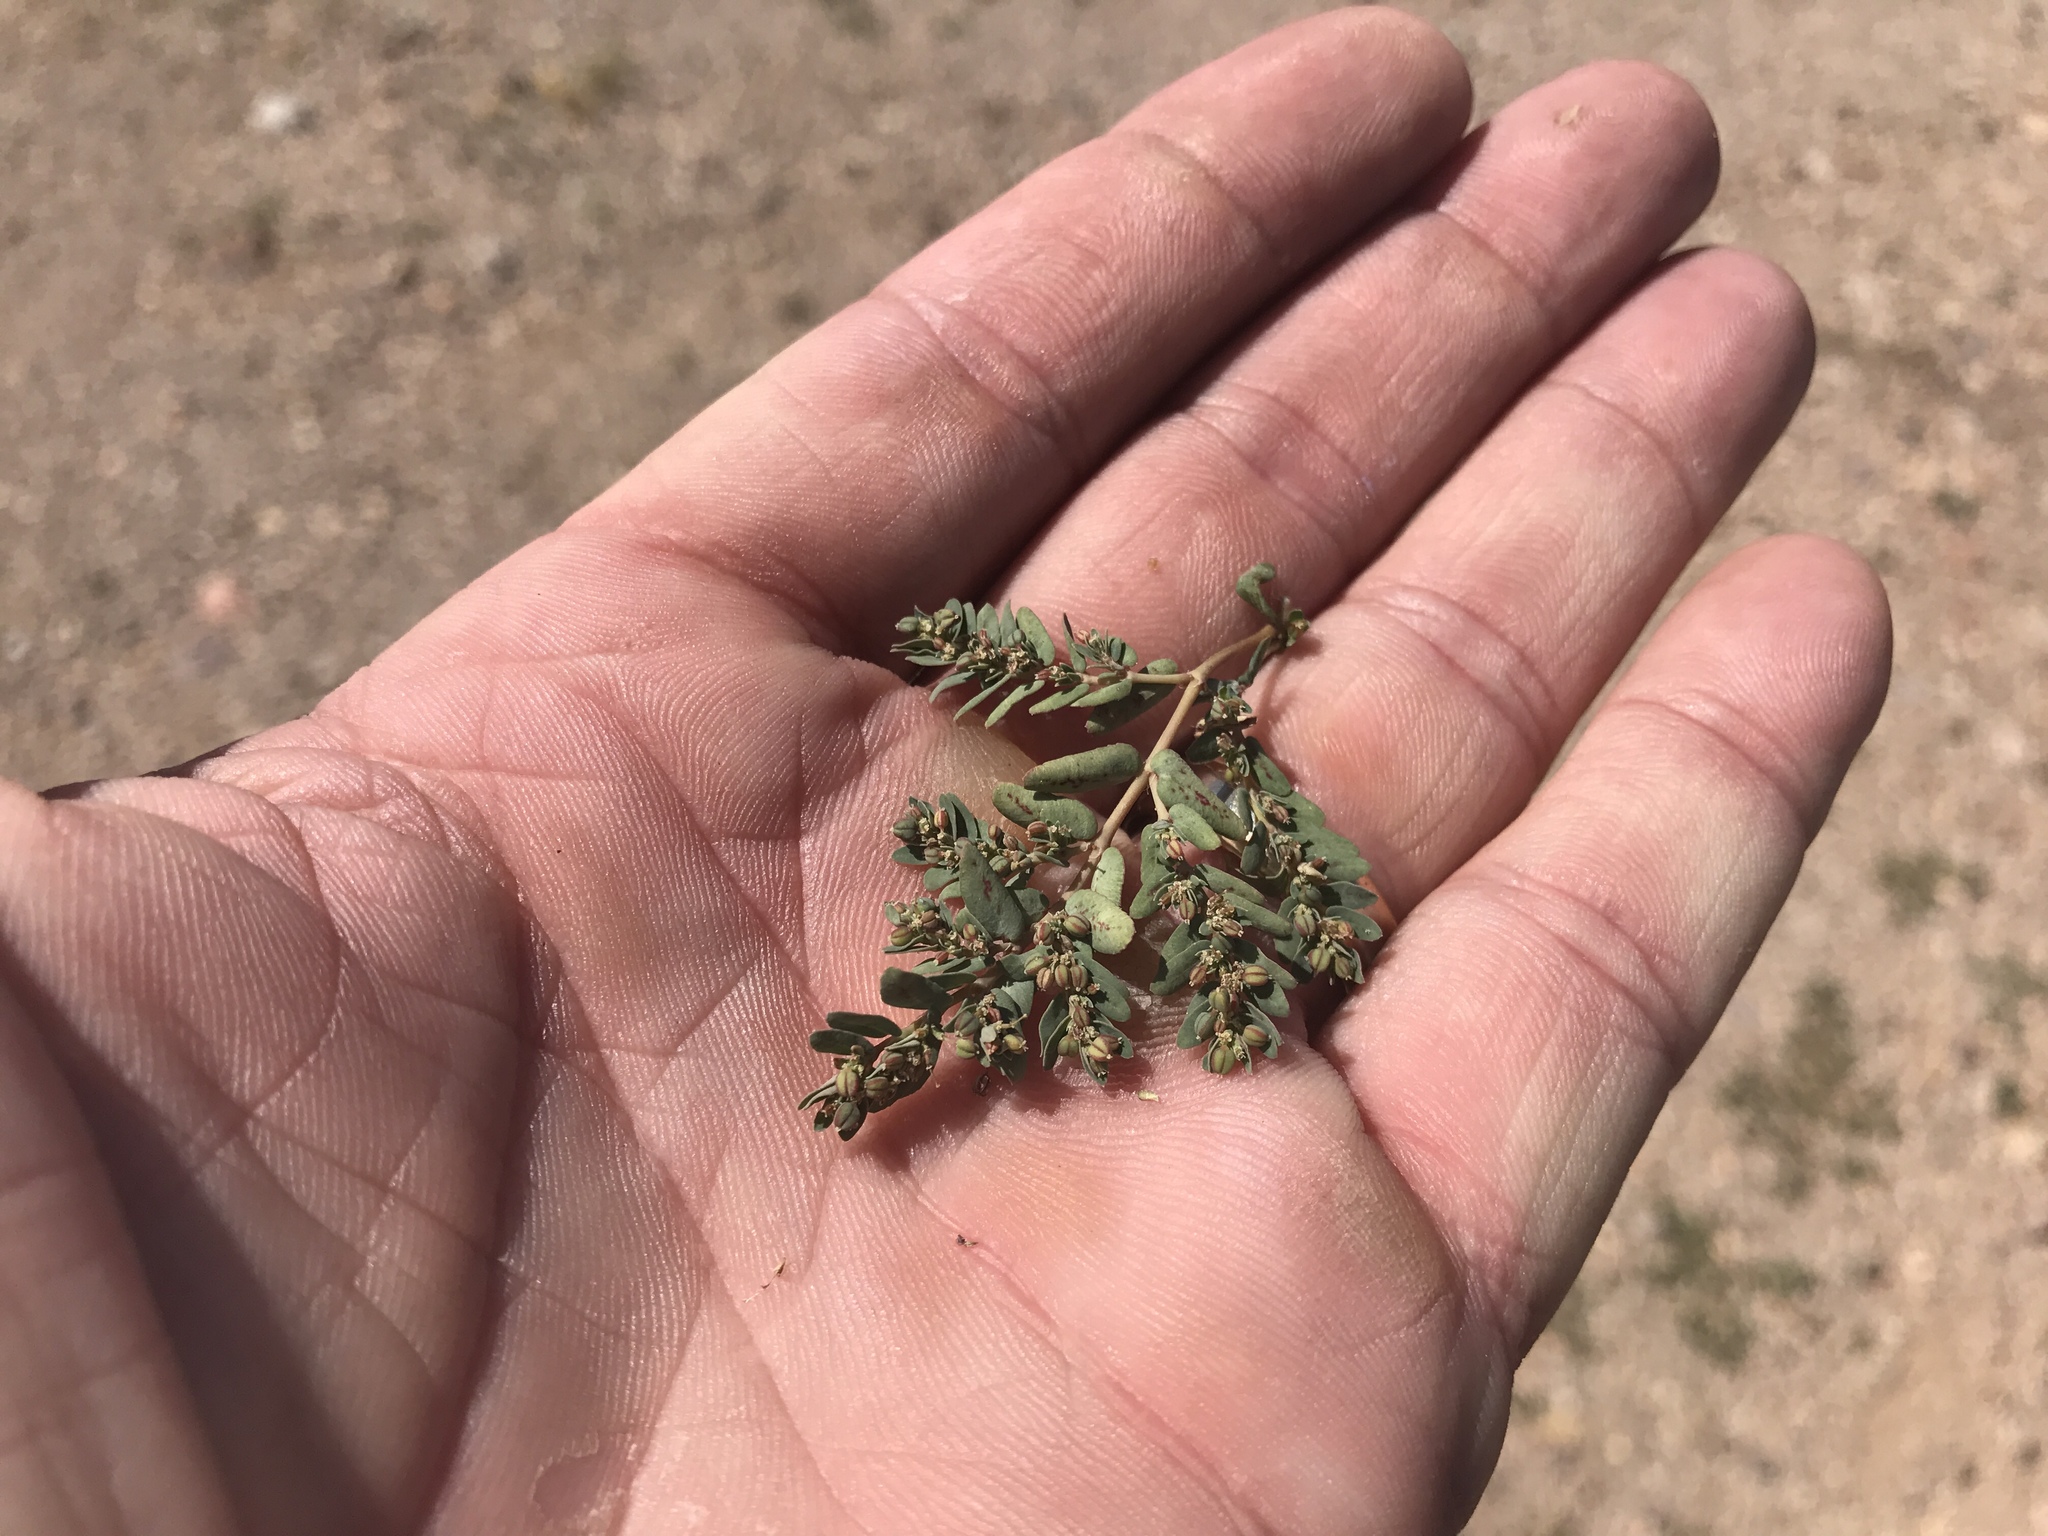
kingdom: Plantae
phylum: Tracheophyta
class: Magnoliopsida
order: Malpighiales
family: Euphorbiaceae
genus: Euphorbia
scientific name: Euphorbia abramsiana
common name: Abram's spurge
